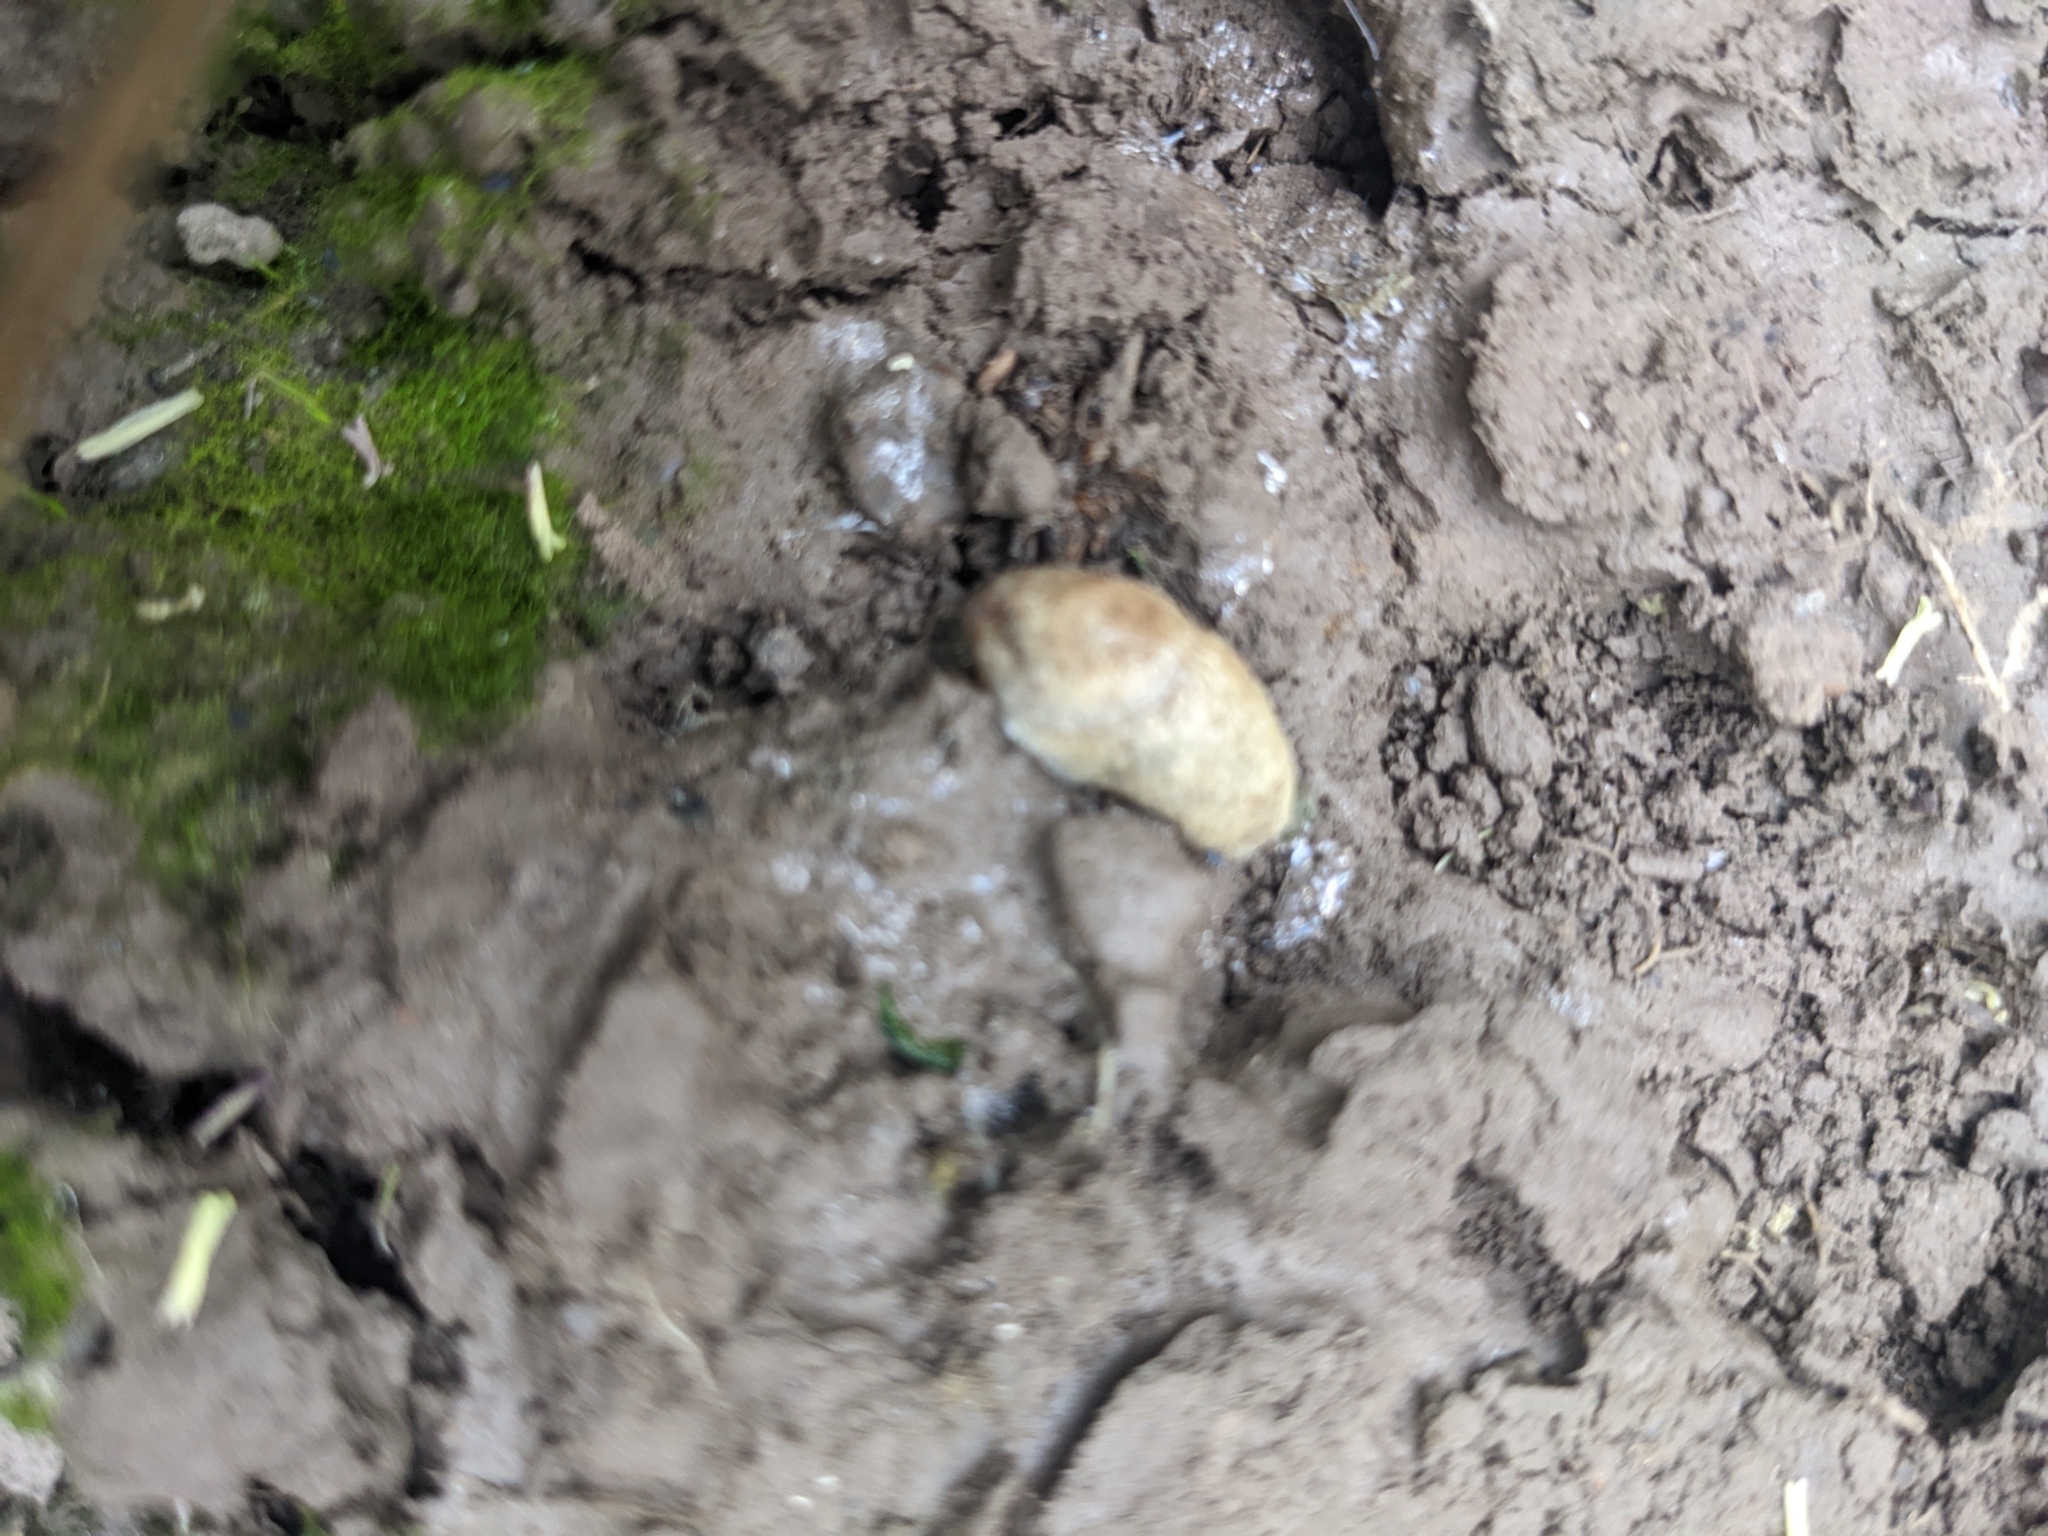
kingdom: Animalia
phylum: Mollusca
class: Gastropoda
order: Stylommatophora
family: Agriolimacidae
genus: Deroceras
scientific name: Deroceras reticulatum
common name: Gray field slug
